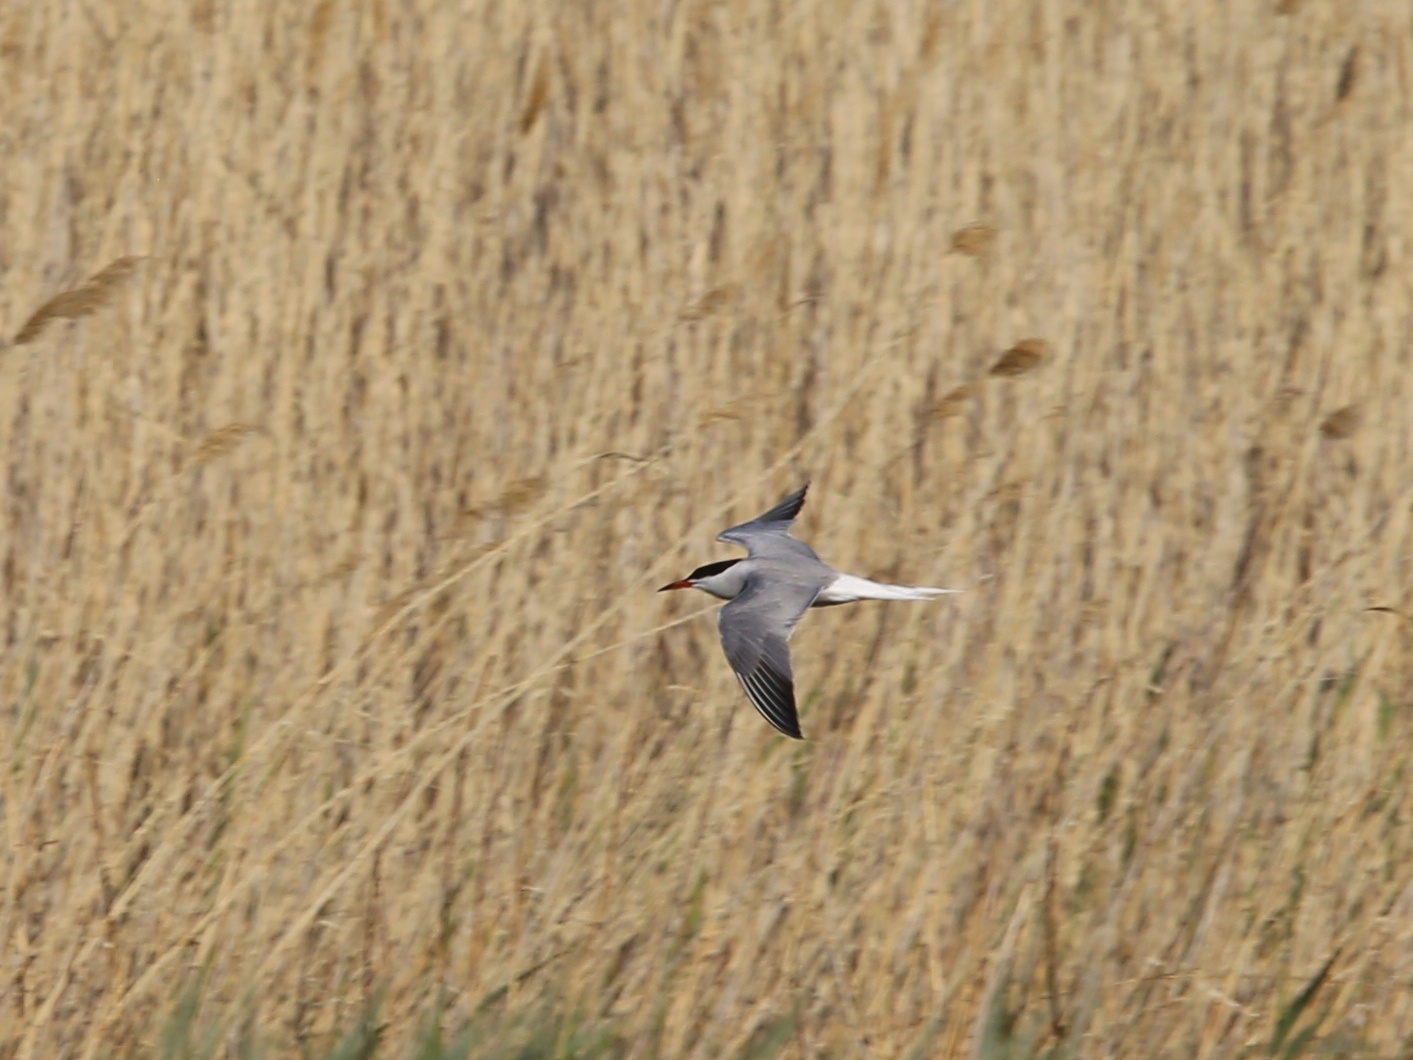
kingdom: Animalia
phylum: Chordata
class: Aves
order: Charadriiformes
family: Laridae
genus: Sterna
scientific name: Sterna hirundo
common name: Common tern
